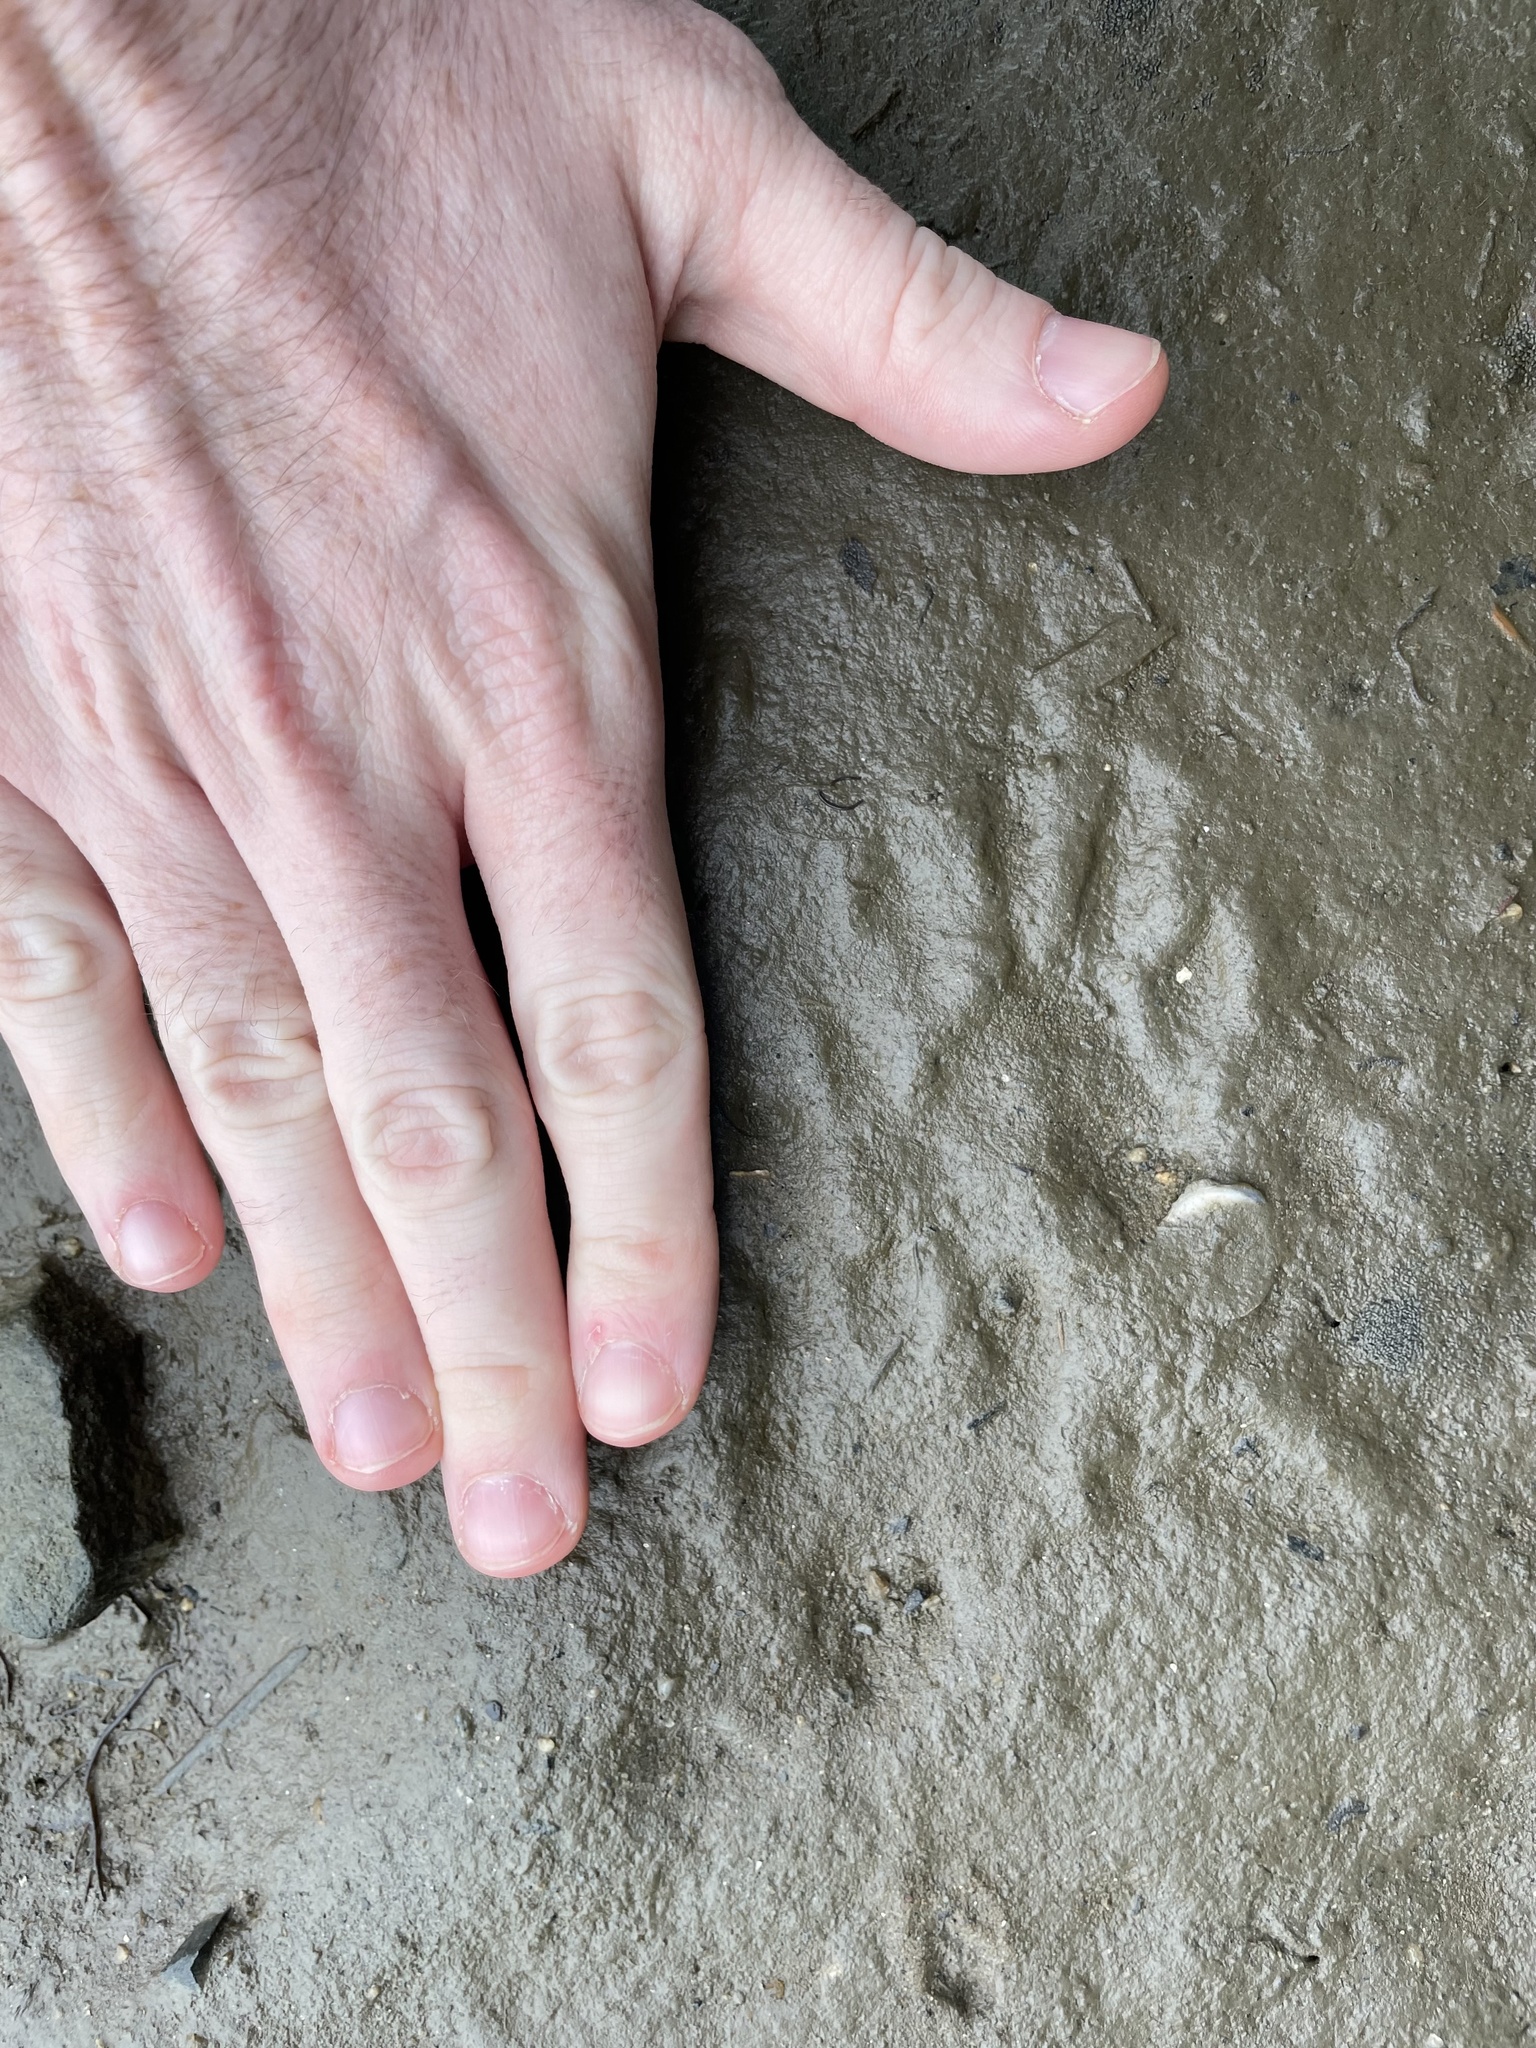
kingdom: Animalia
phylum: Chordata
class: Mammalia
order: Carnivora
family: Procyonidae
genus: Procyon
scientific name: Procyon lotor
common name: Raccoon
